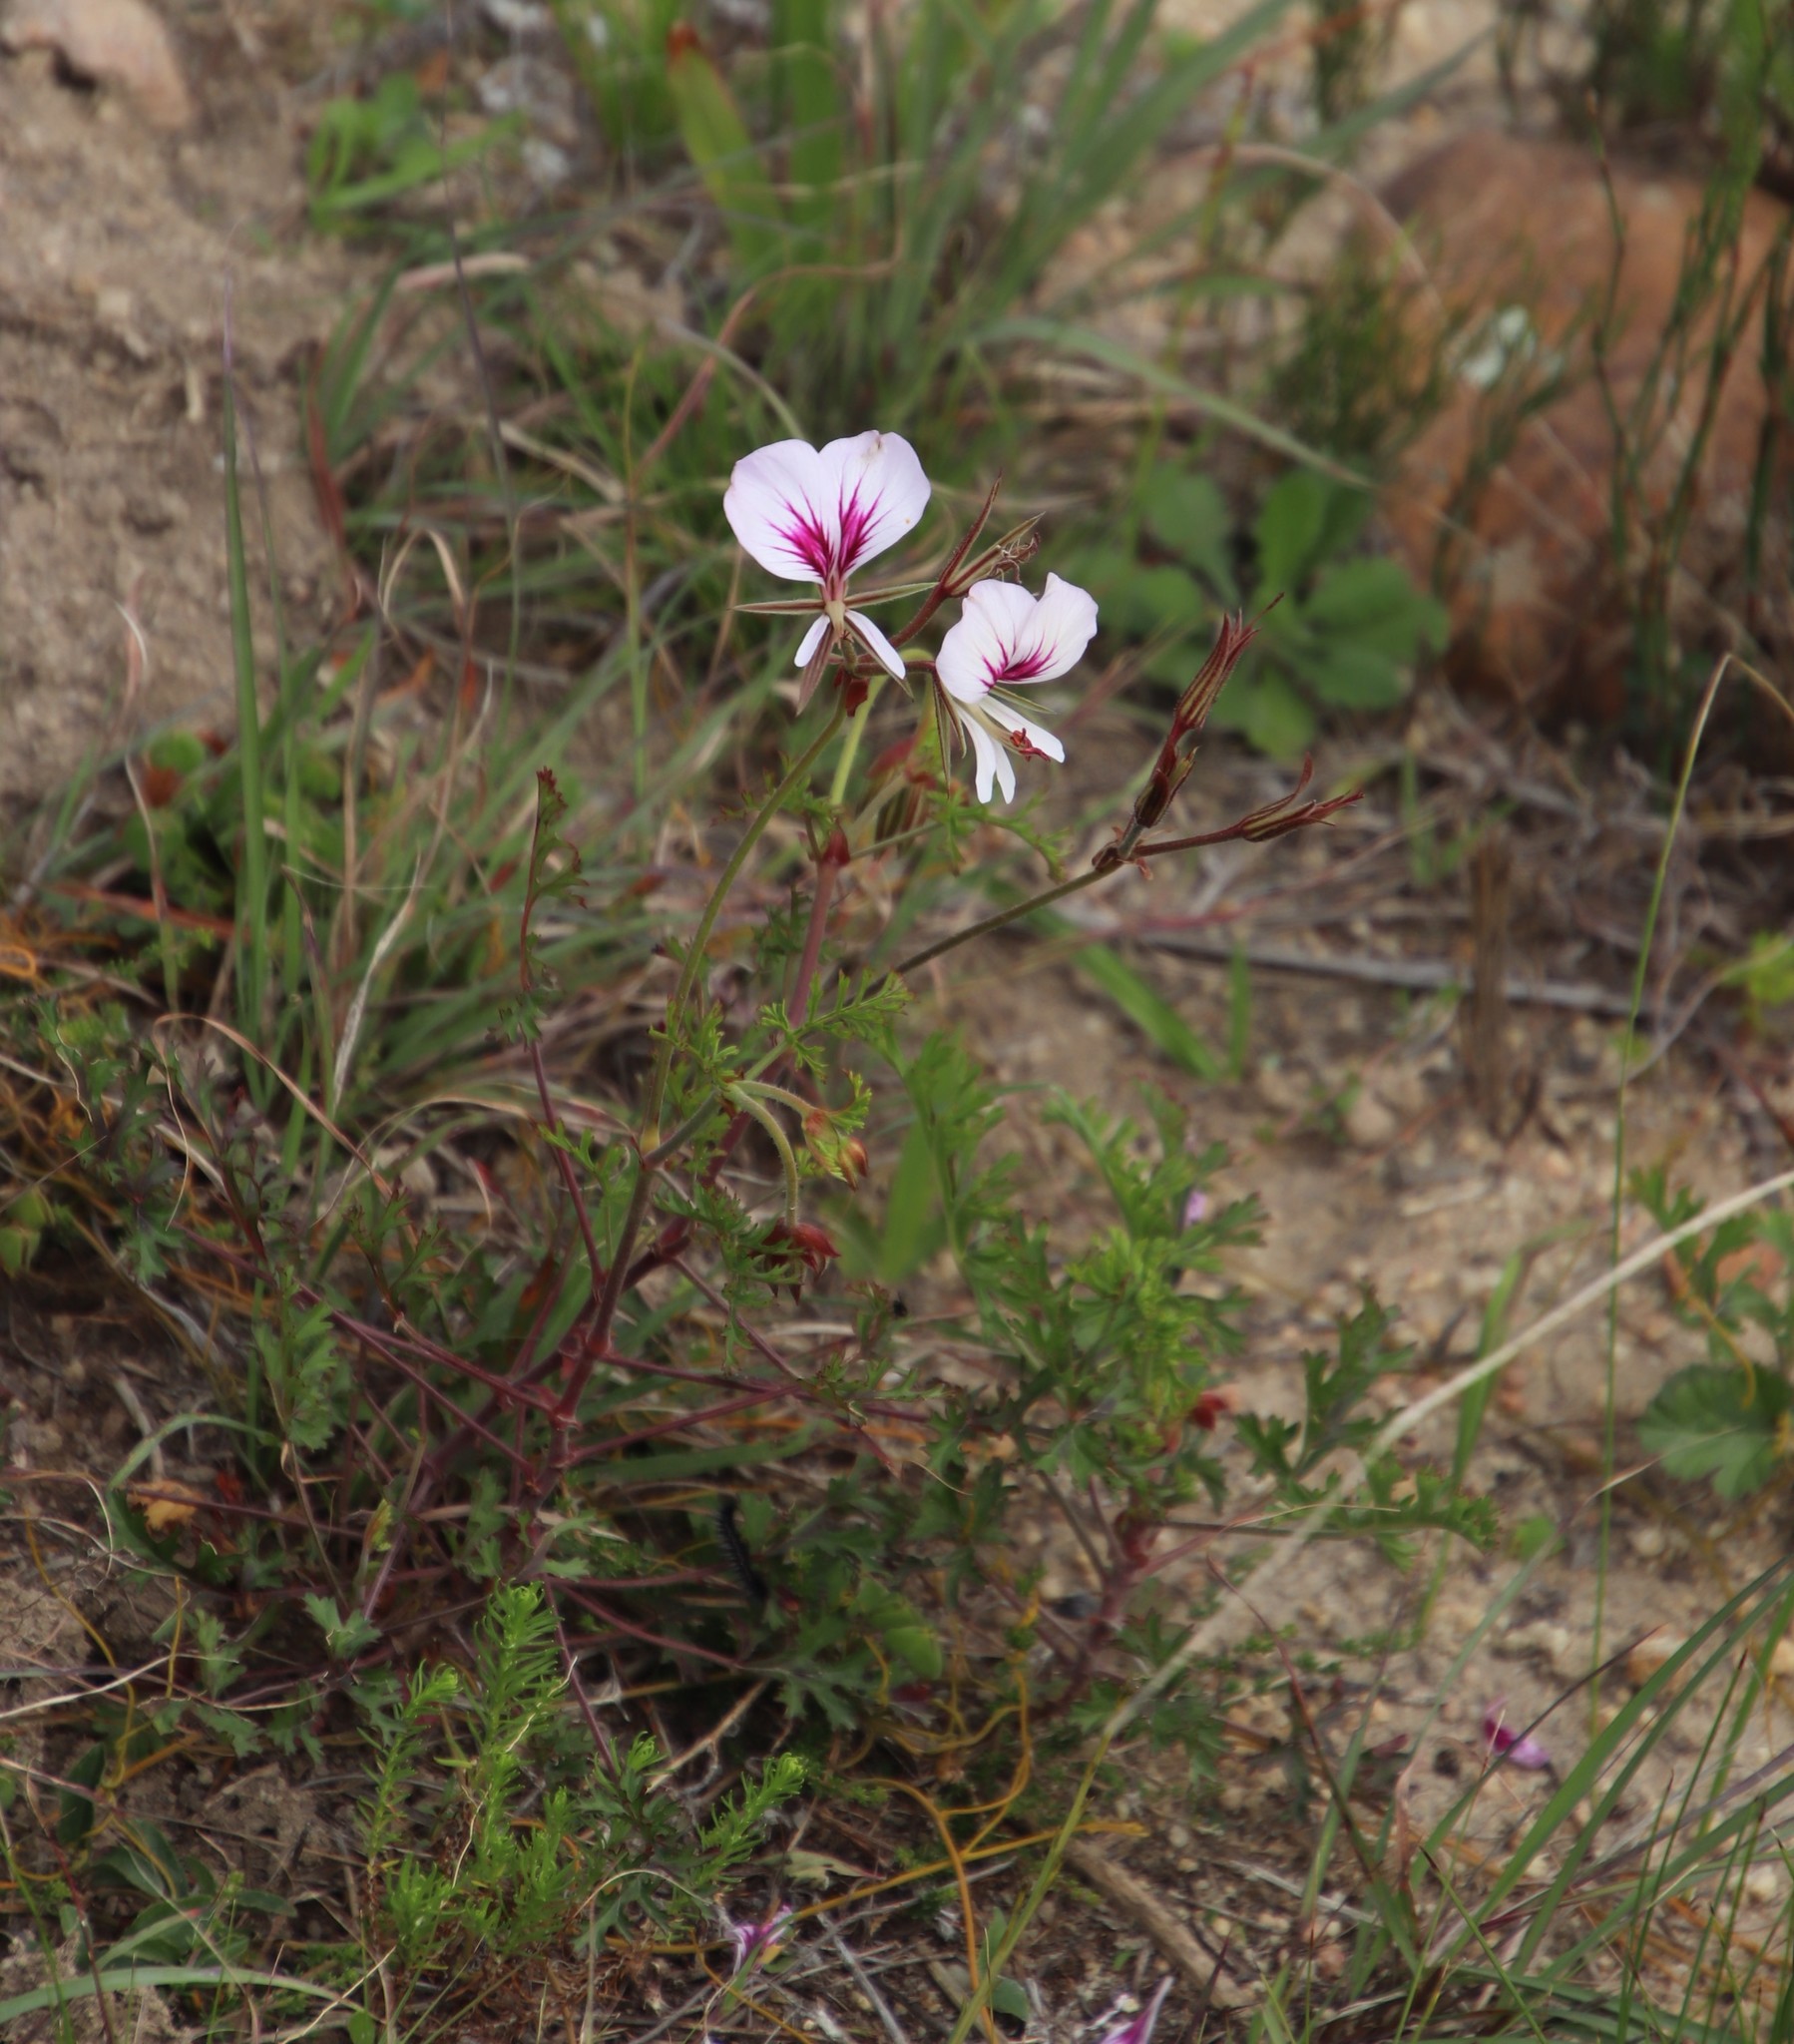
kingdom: Plantae
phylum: Tracheophyta
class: Magnoliopsida
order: Geraniales
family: Geraniaceae
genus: Pelargonium
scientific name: Pelargonium myrrhifolium
